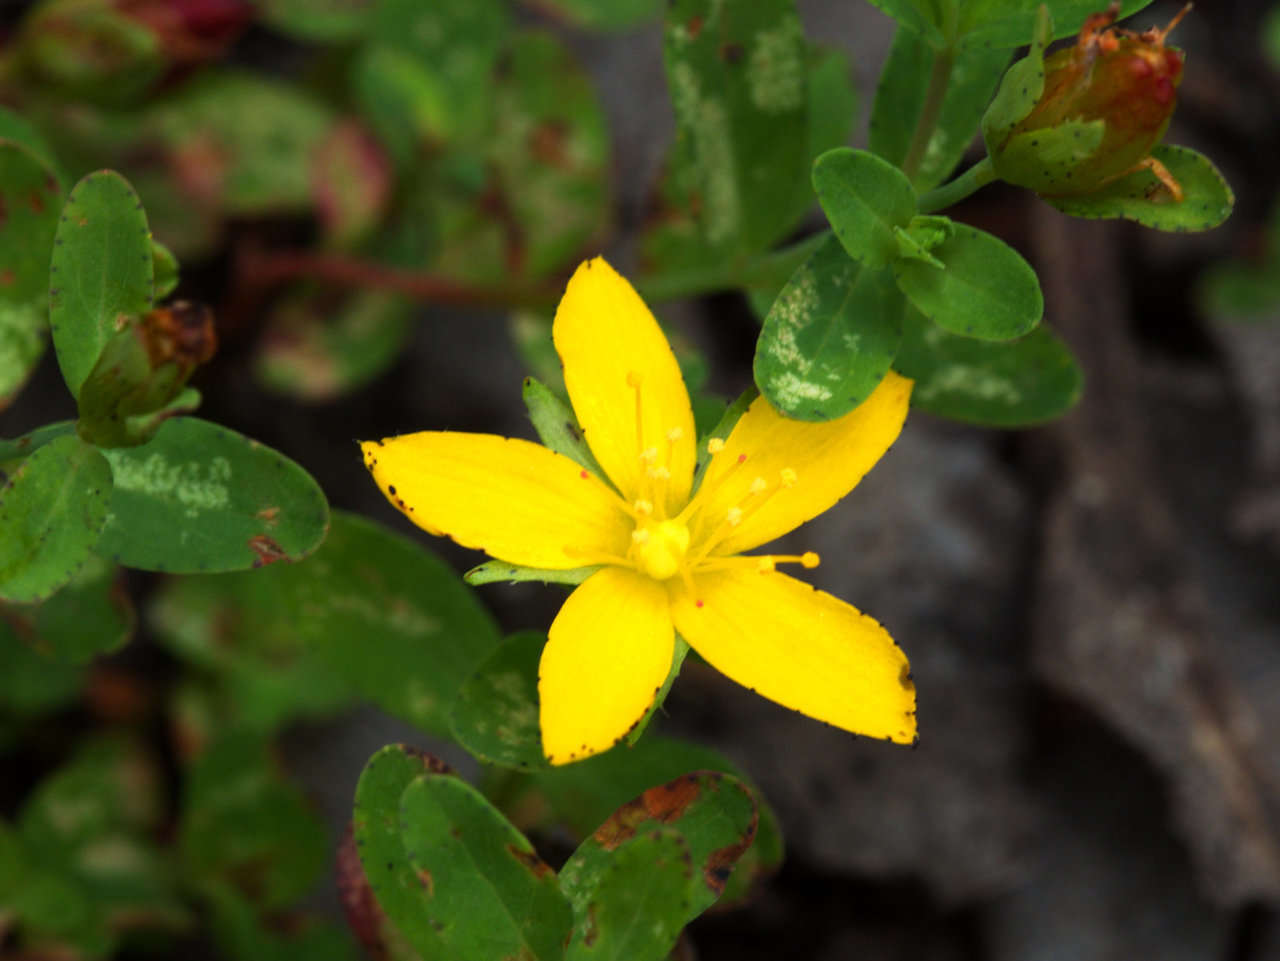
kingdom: Plantae
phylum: Tracheophyta
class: Magnoliopsida
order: Malpighiales
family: Hypericaceae
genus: Hypericum
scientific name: Hypericum humifusum
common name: Trailing st. john's-wort
